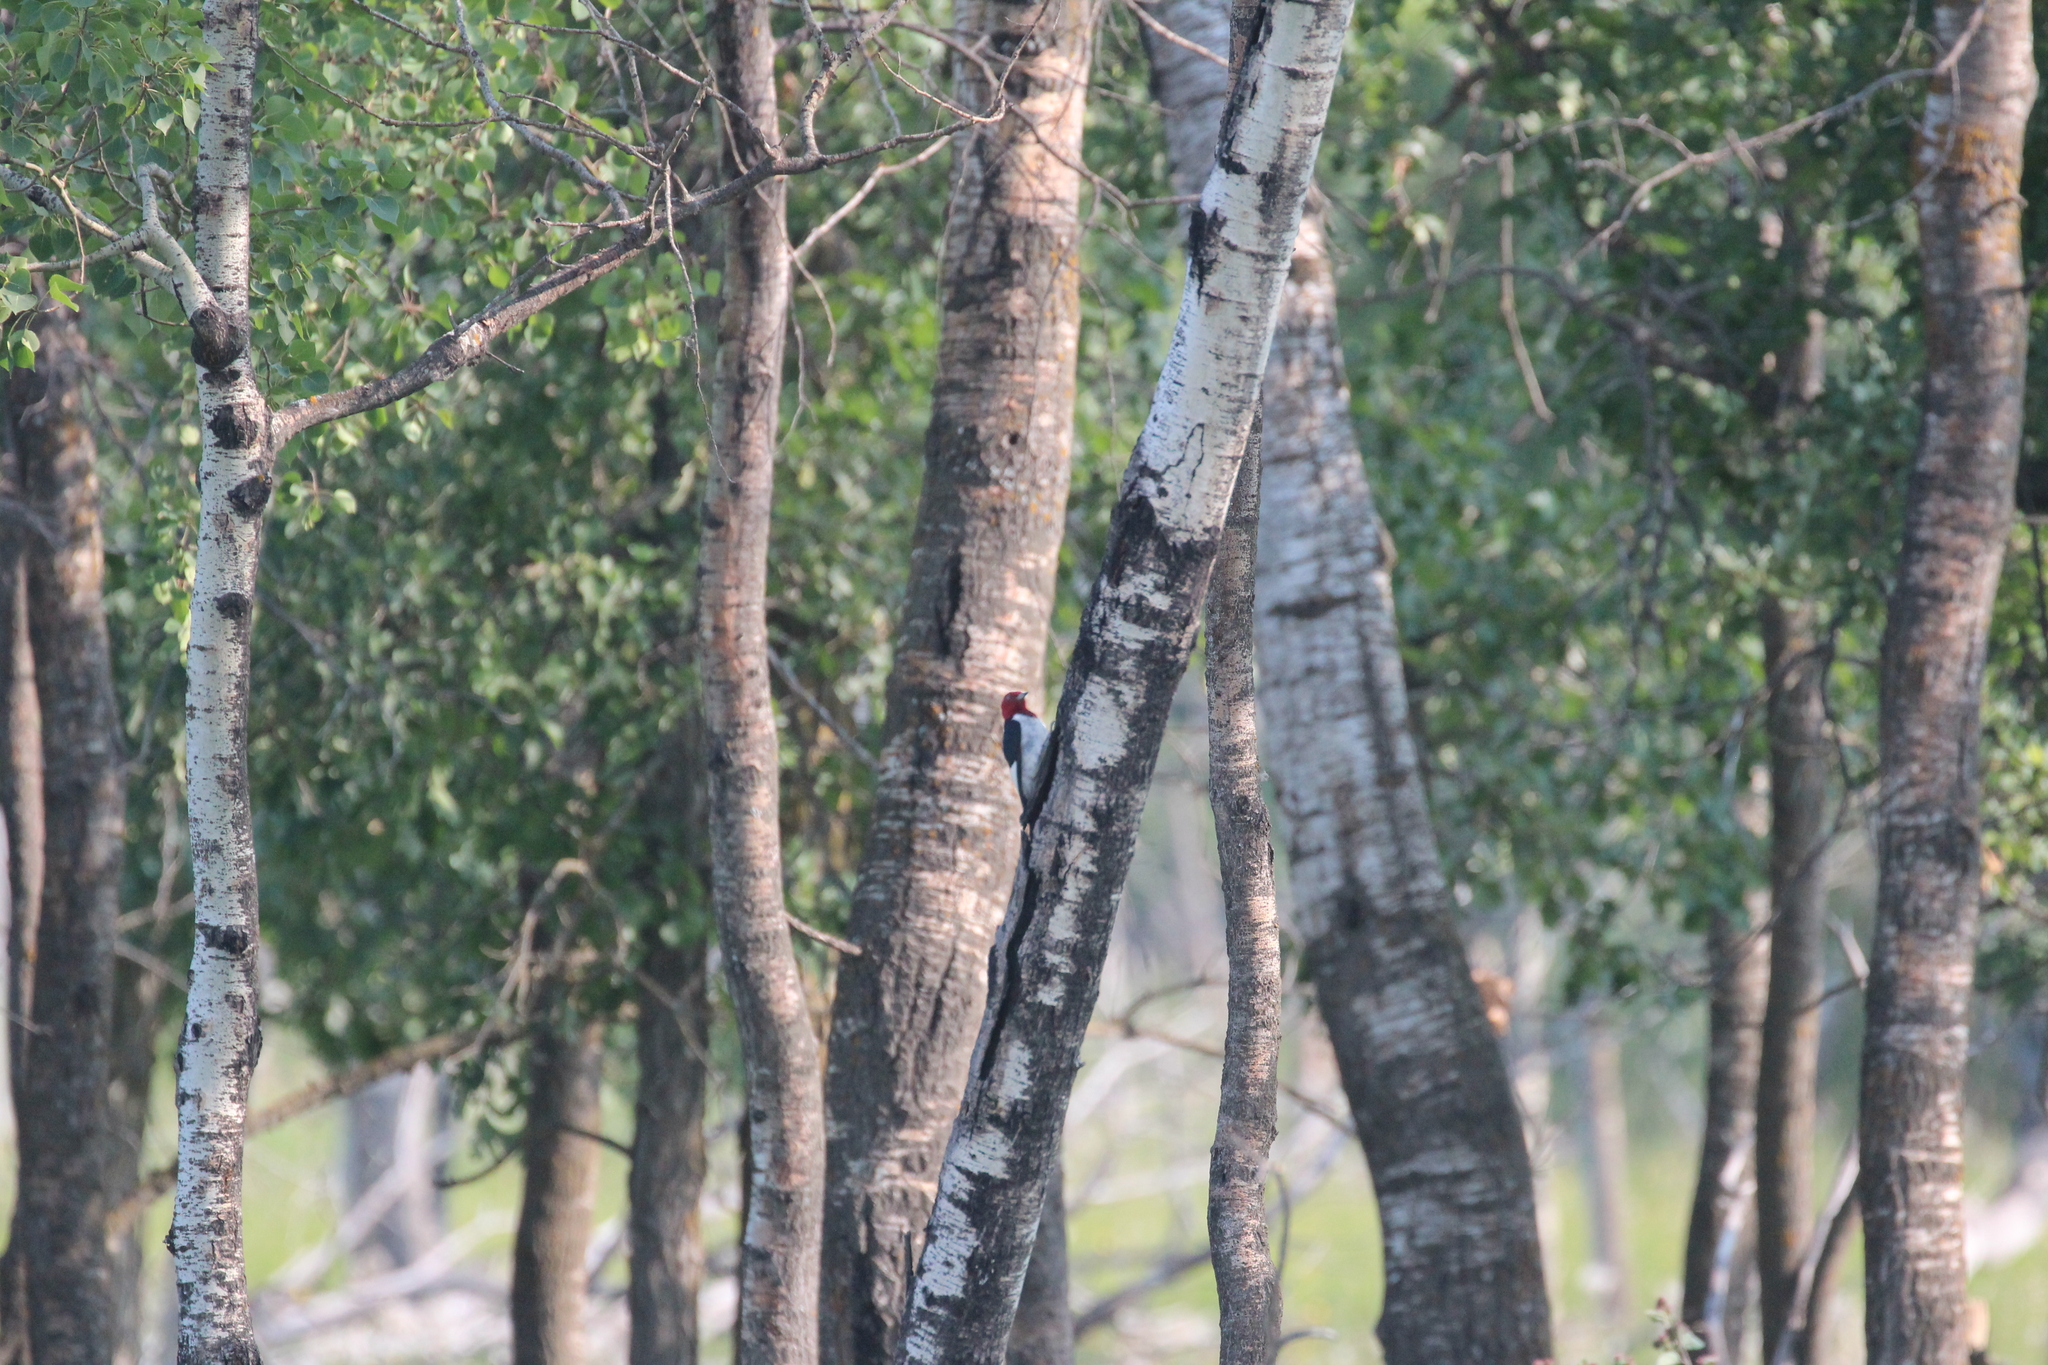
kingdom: Animalia
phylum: Chordata
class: Aves
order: Piciformes
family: Picidae
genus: Melanerpes
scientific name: Melanerpes erythrocephalus
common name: Red-headed woodpecker
